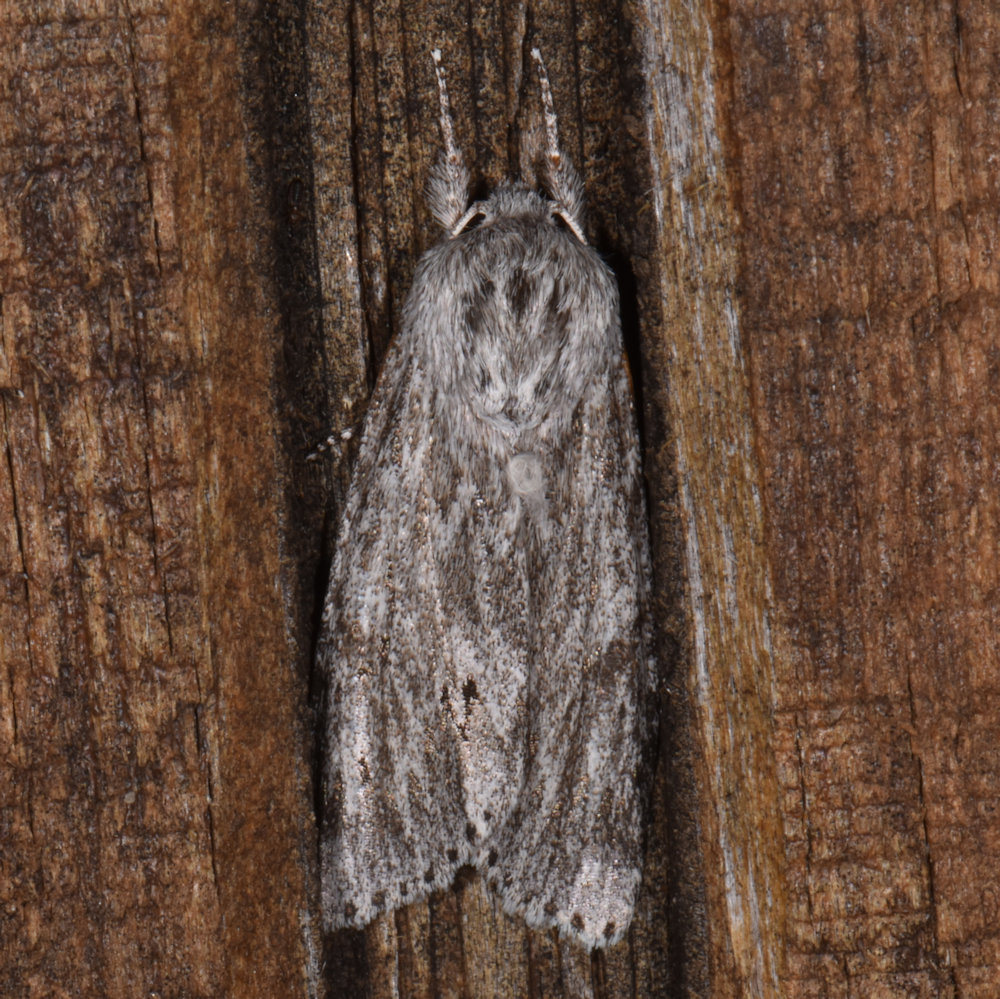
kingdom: Animalia
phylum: Arthropoda
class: Insecta
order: Lepidoptera
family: Noctuidae
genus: Acronicta
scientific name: Acronicta oblinita
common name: Smeared dagger
